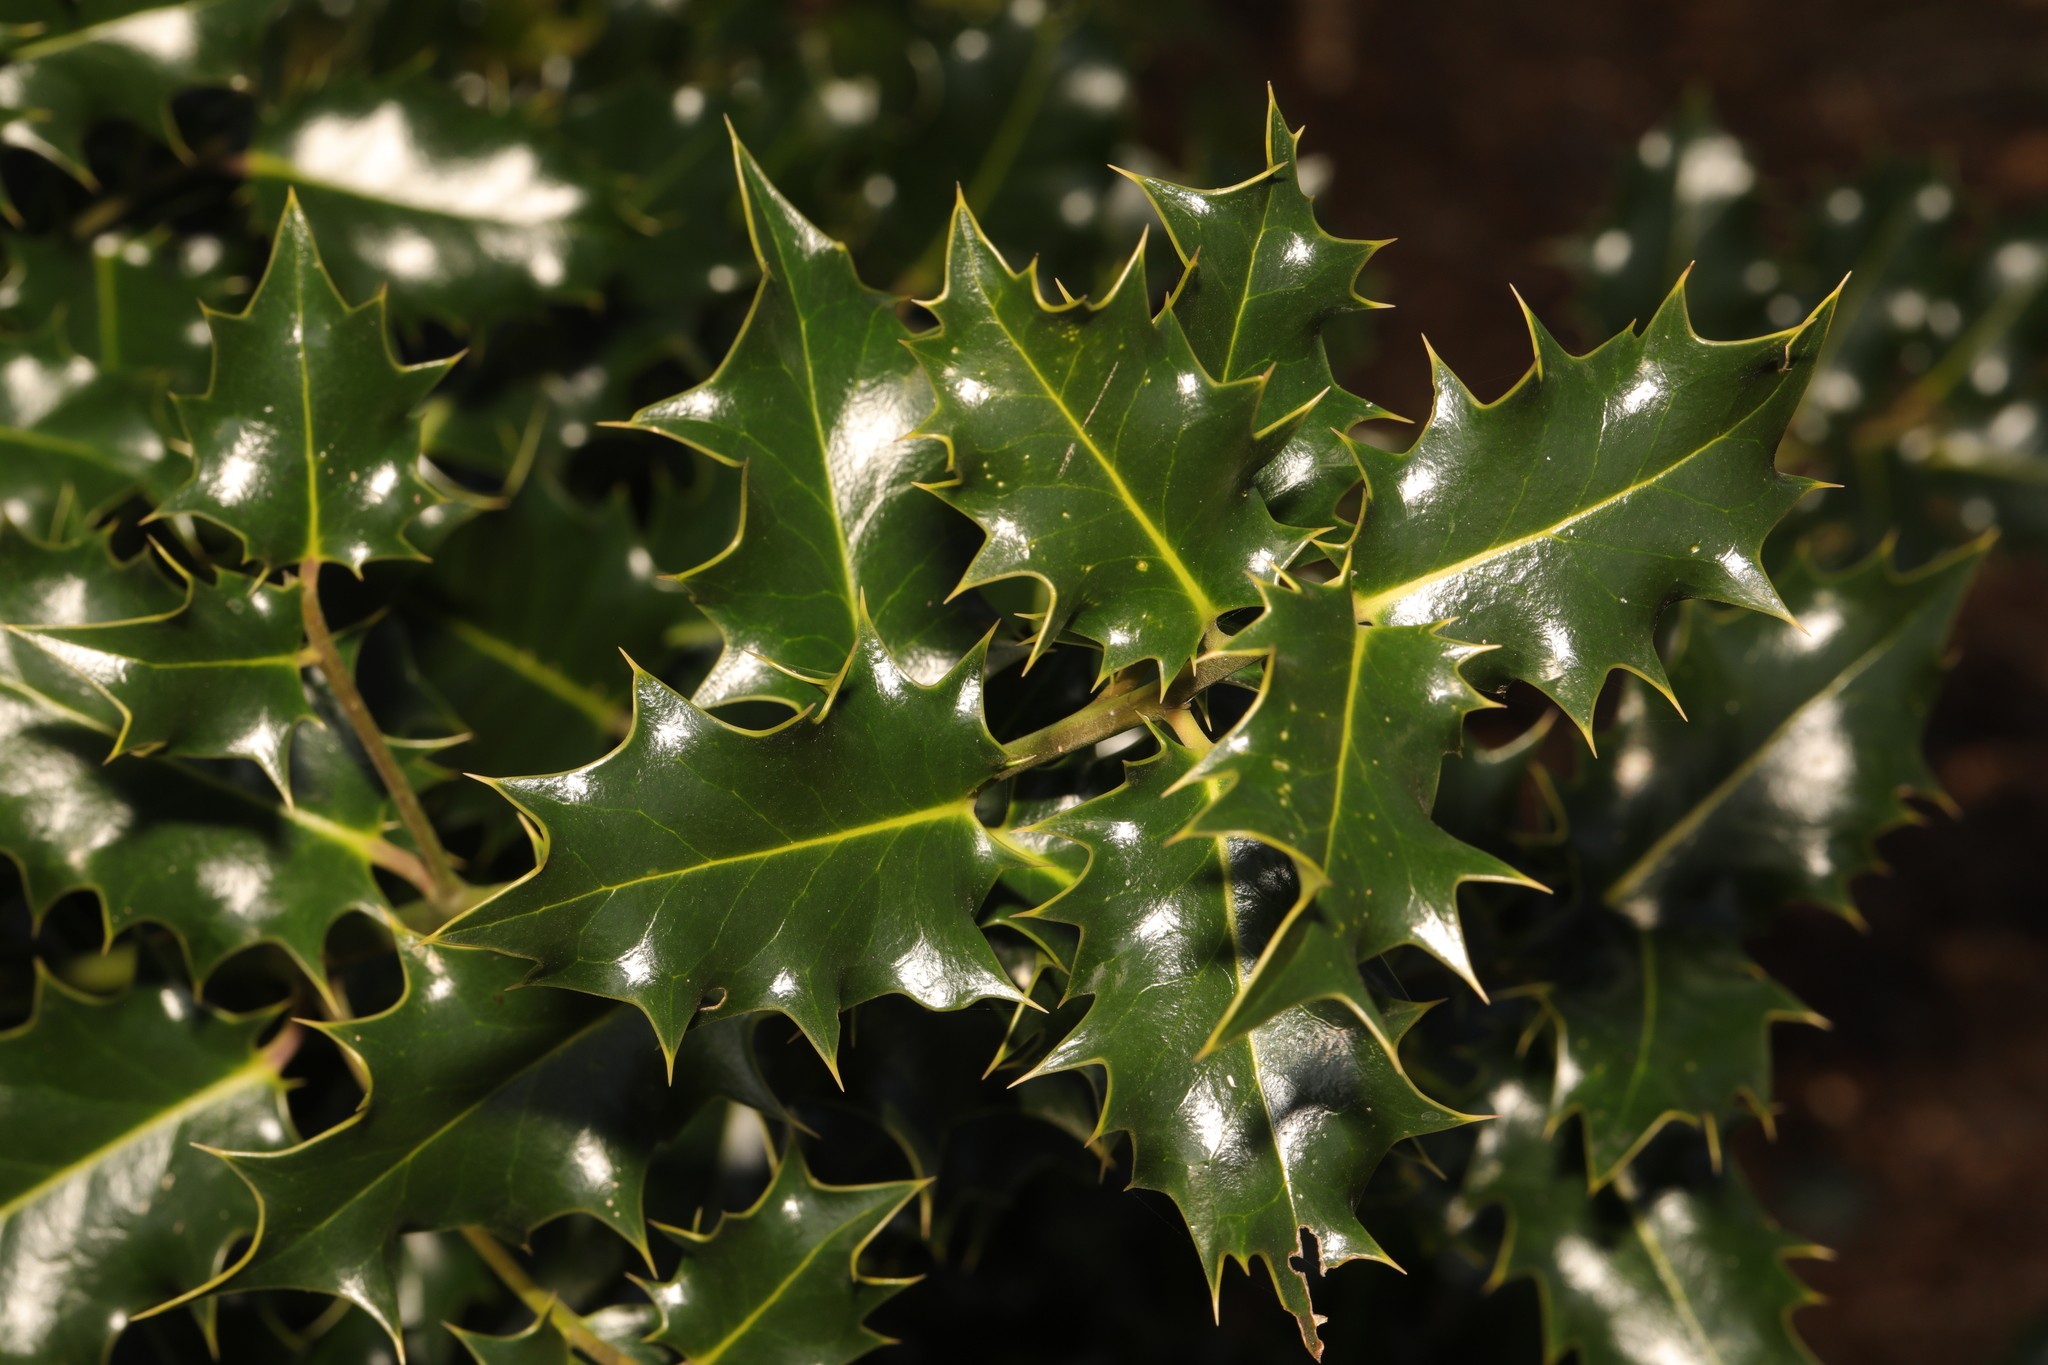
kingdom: Plantae
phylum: Tracheophyta
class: Magnoliopsida
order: Aquifoliales
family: Aquifoliaceae
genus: Ilex
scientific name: Ilex aquifolium
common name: English holly
